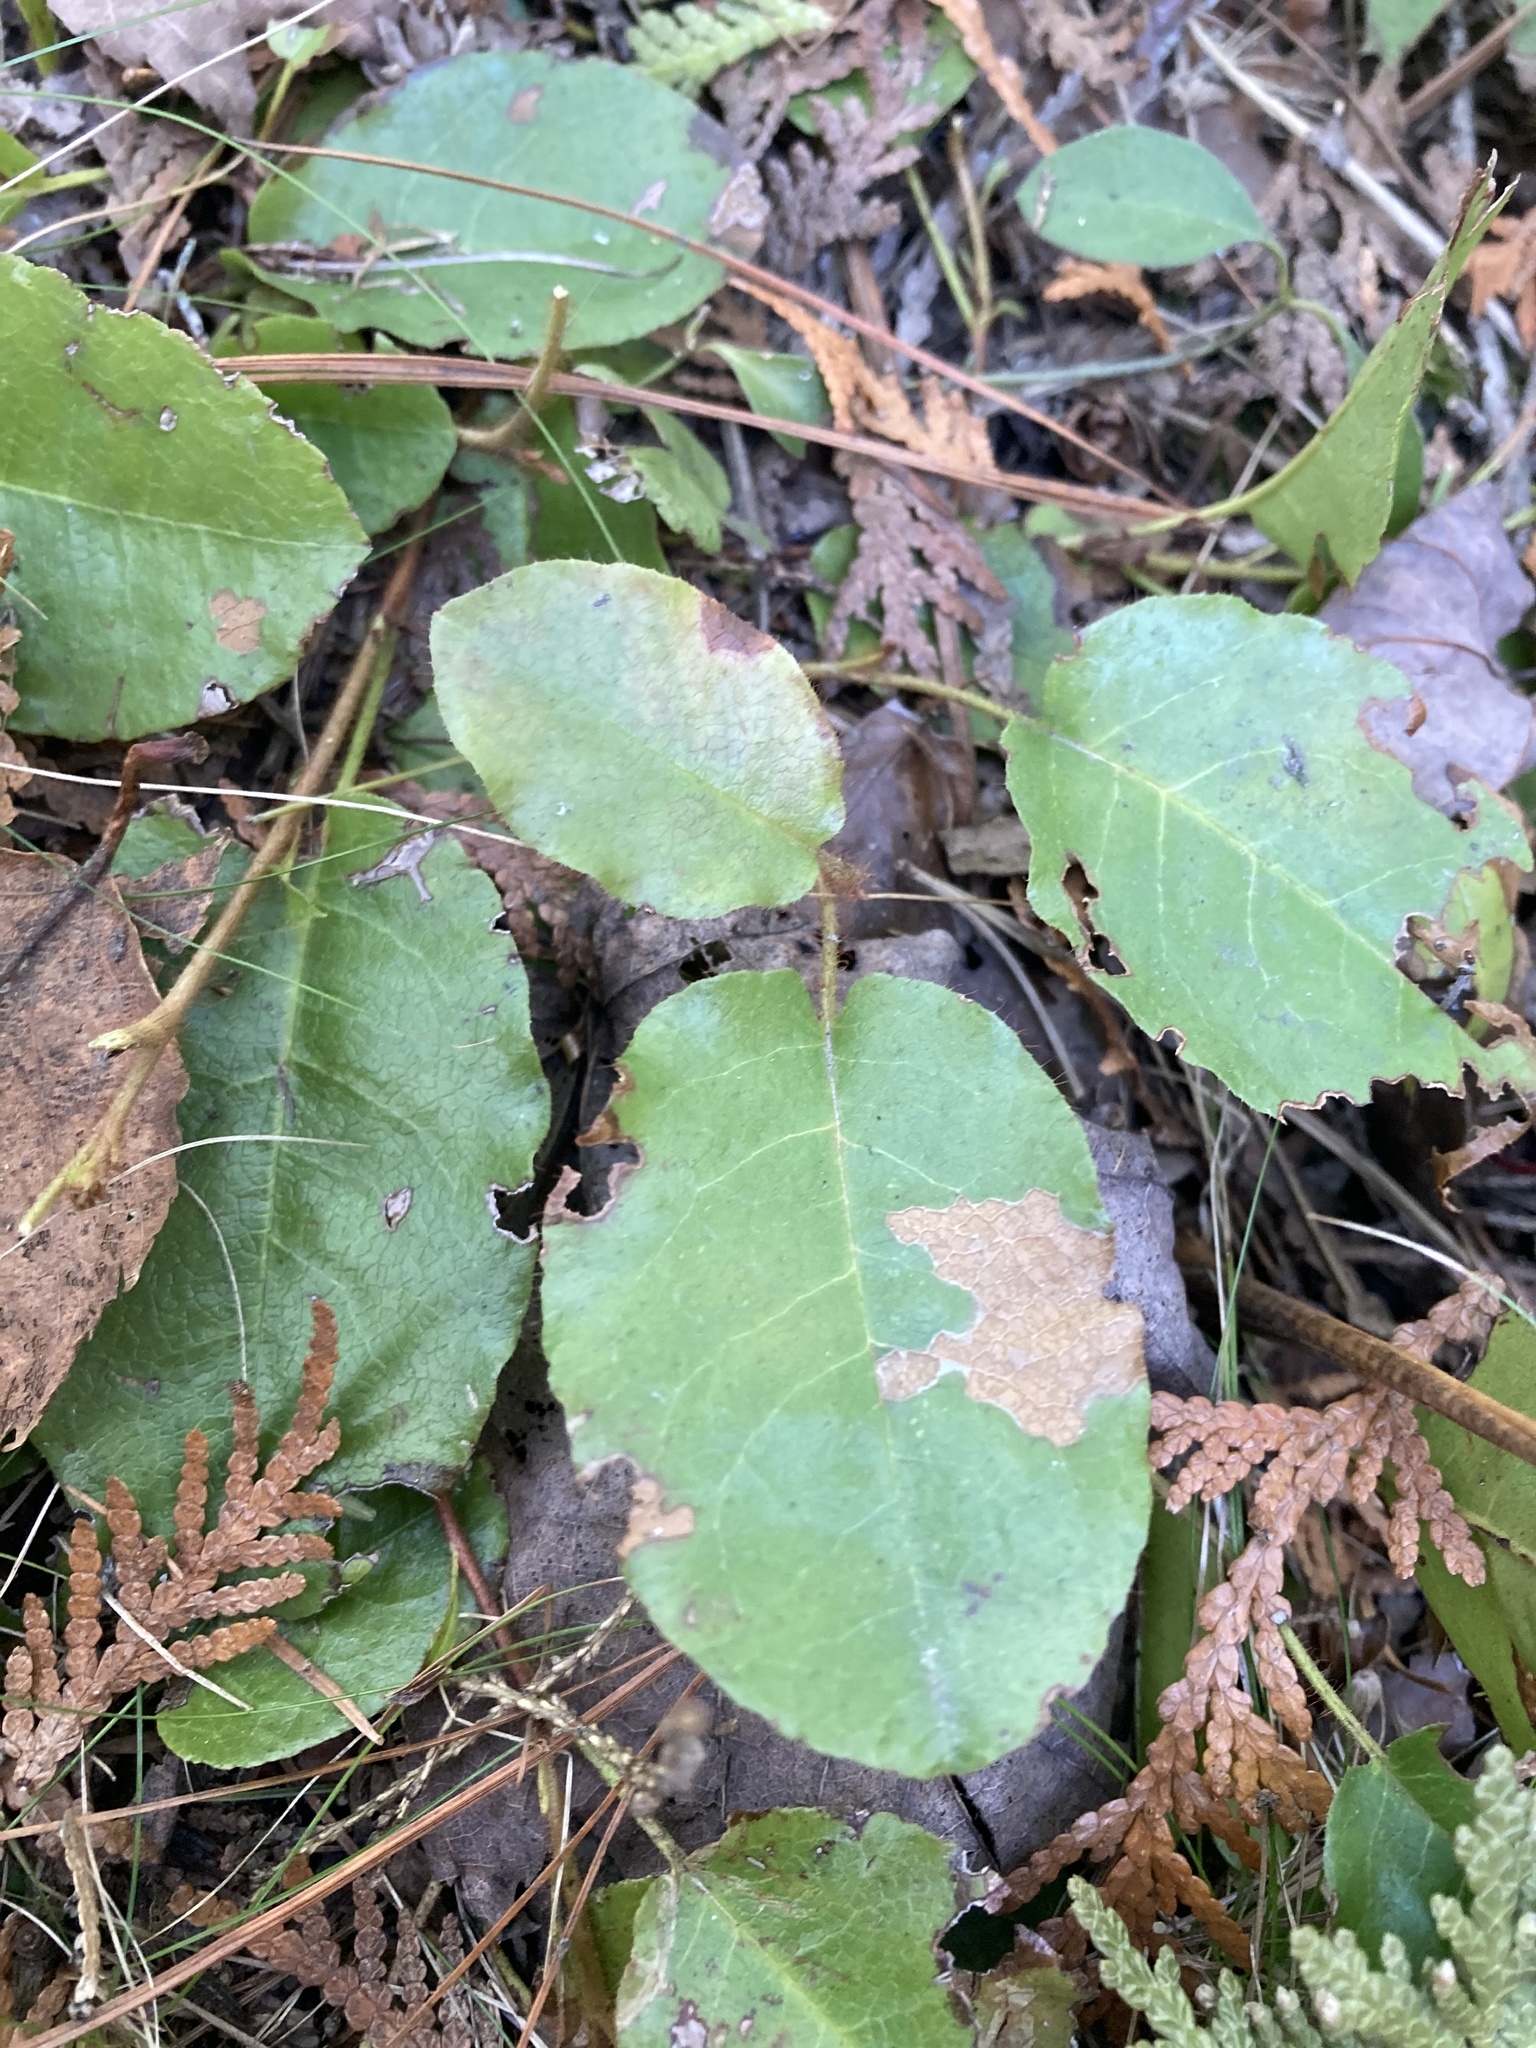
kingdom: Plantae
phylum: Tracheophyta
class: Magnoliopsida
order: Ericales
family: Ericaceae
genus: Epigaea
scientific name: Epigaea repens
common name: Gravelroot
